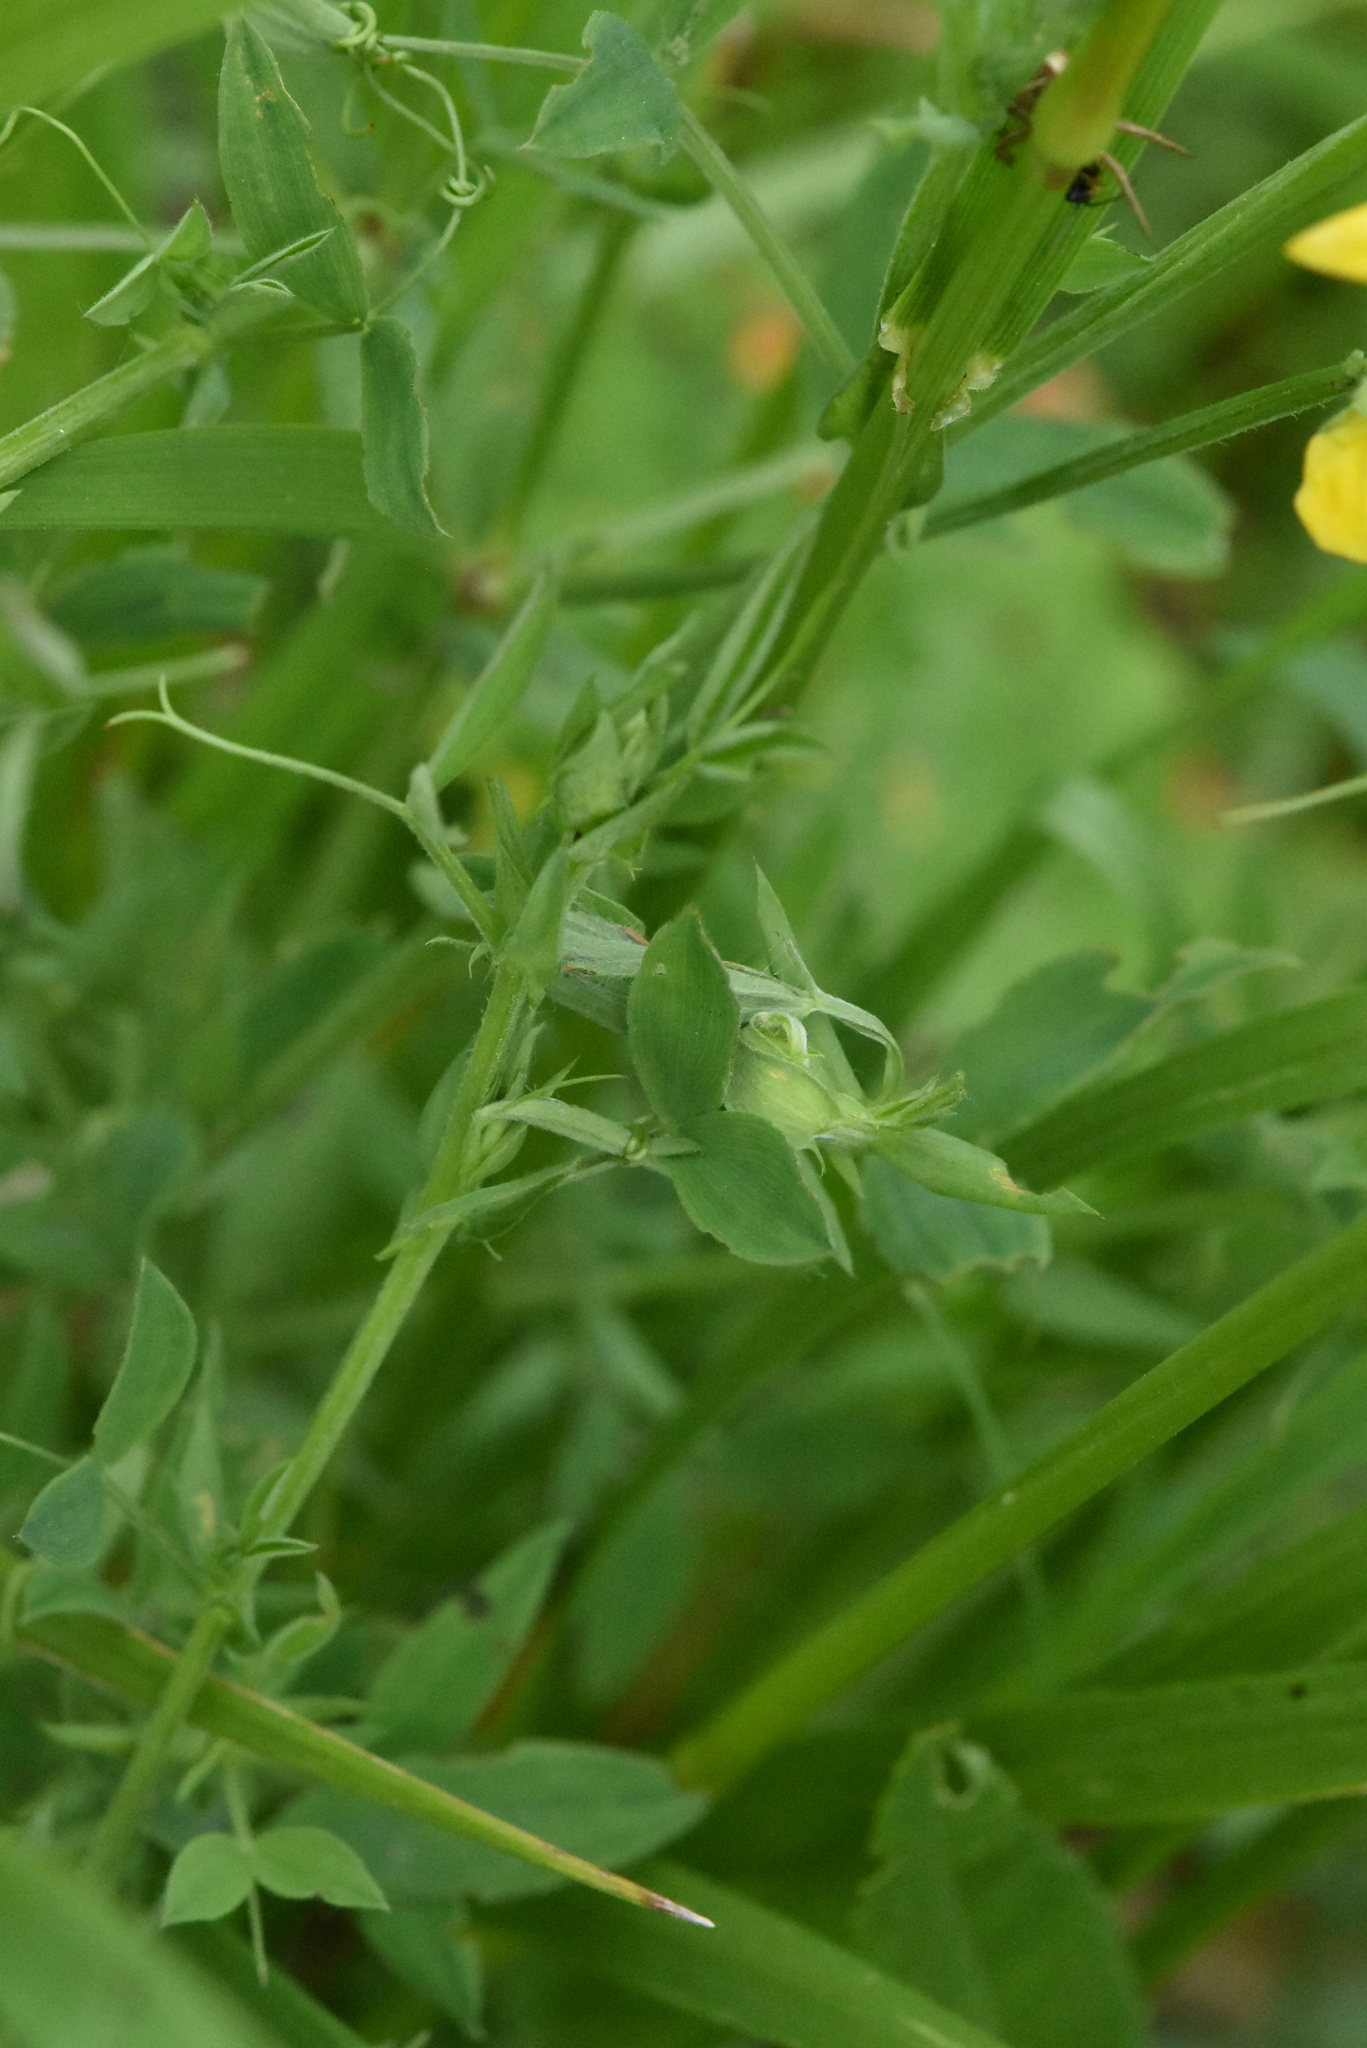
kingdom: Plantae
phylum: Tracheophyta
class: Magnoliopsida
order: Fabales
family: Fabaceae
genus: Lathyrus
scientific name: Lathyrus pratensis
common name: Meadow vetchling
